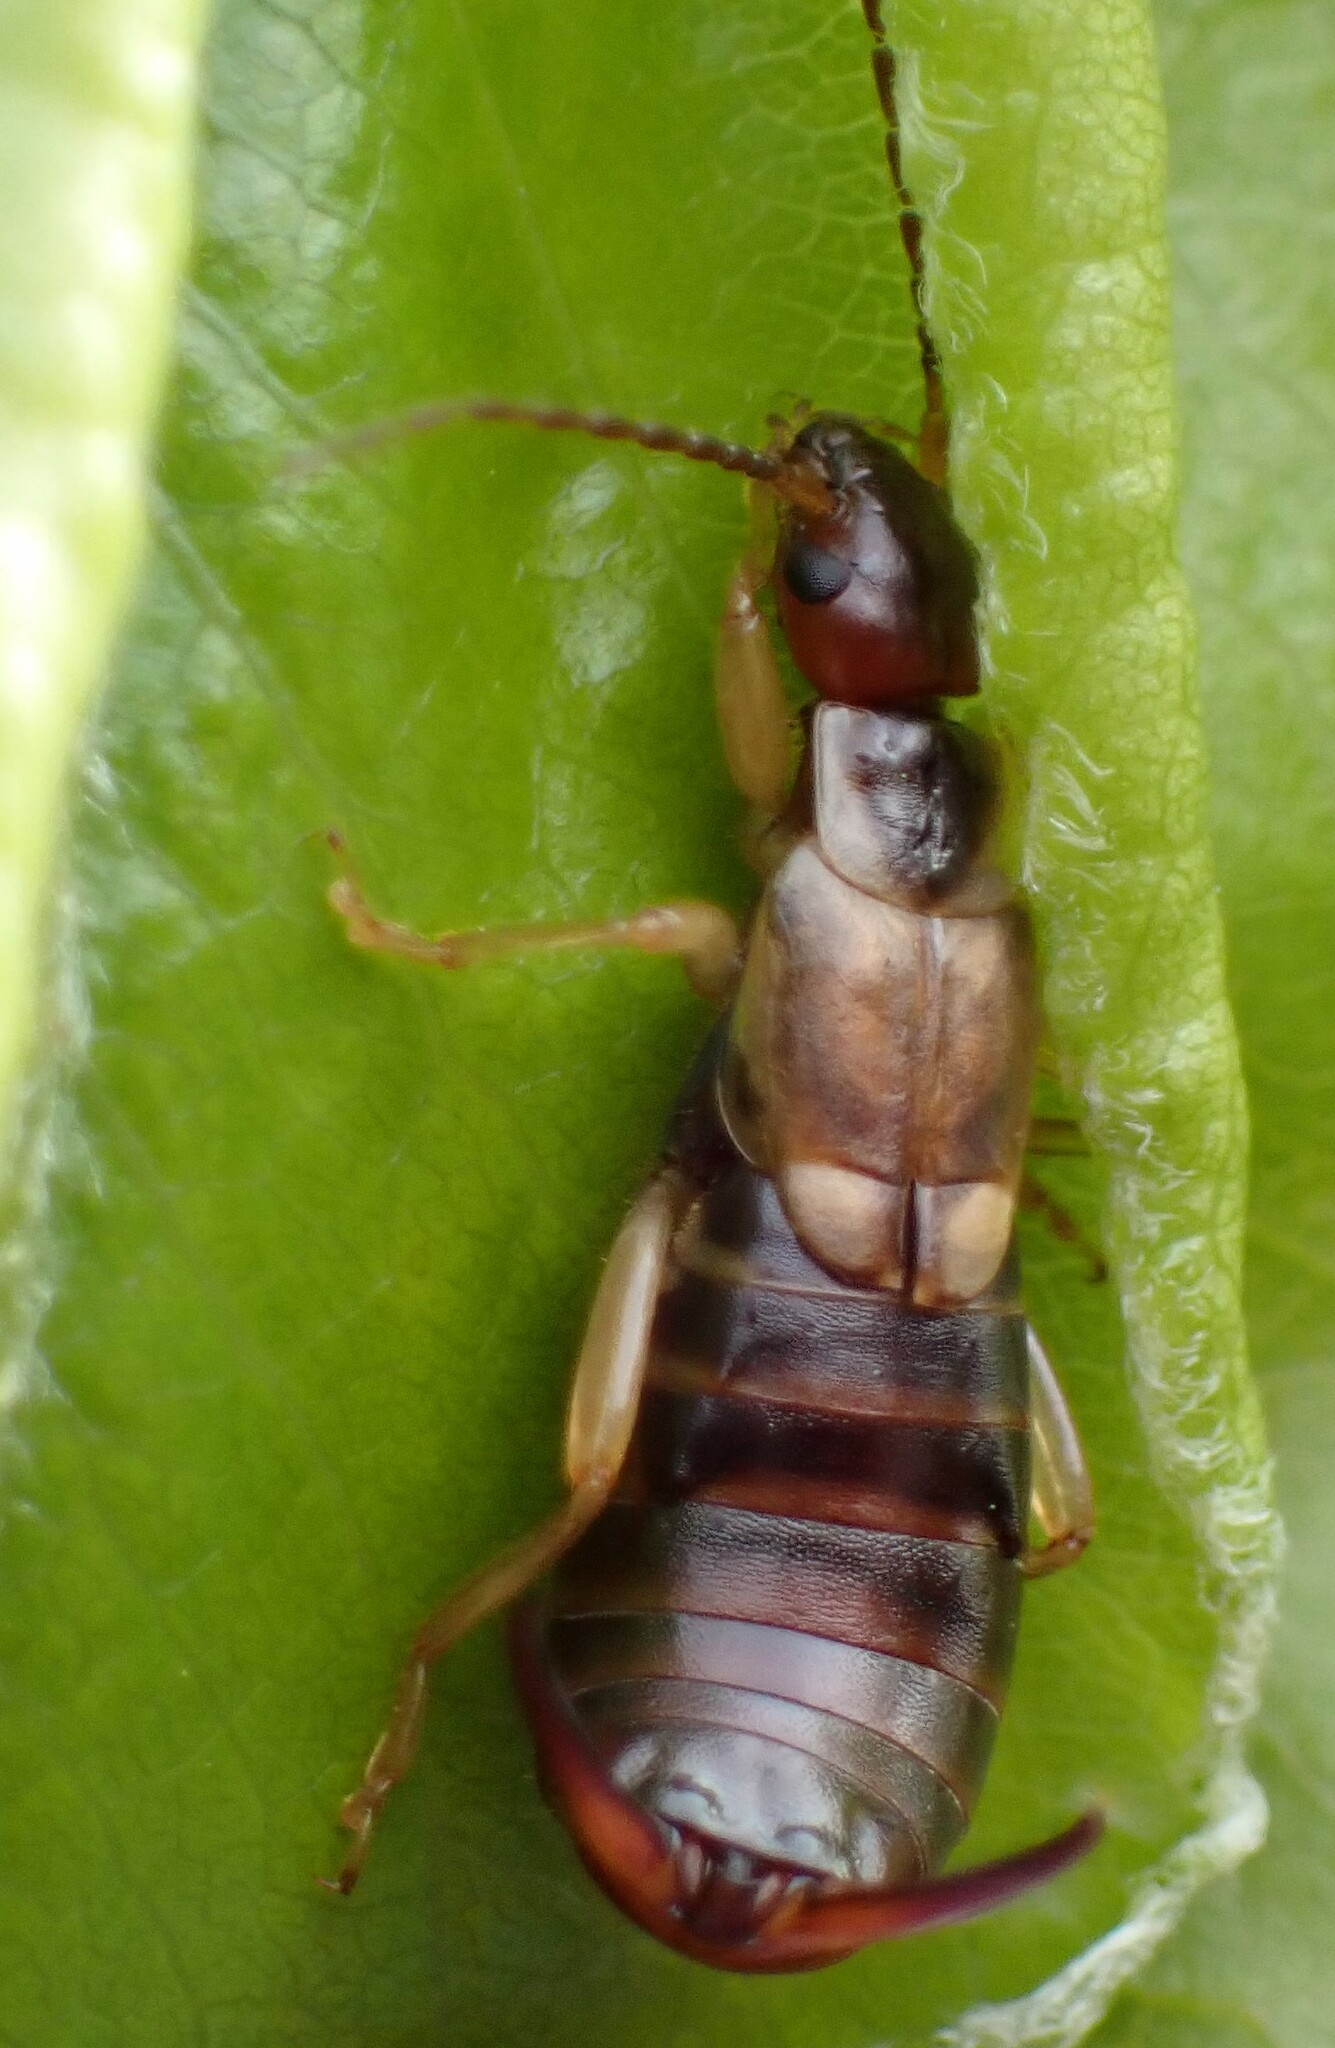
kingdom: Animalia
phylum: Arthropoda
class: Insecta
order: Dermaptera
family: Forficulidae
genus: Forficula
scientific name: Forficula
